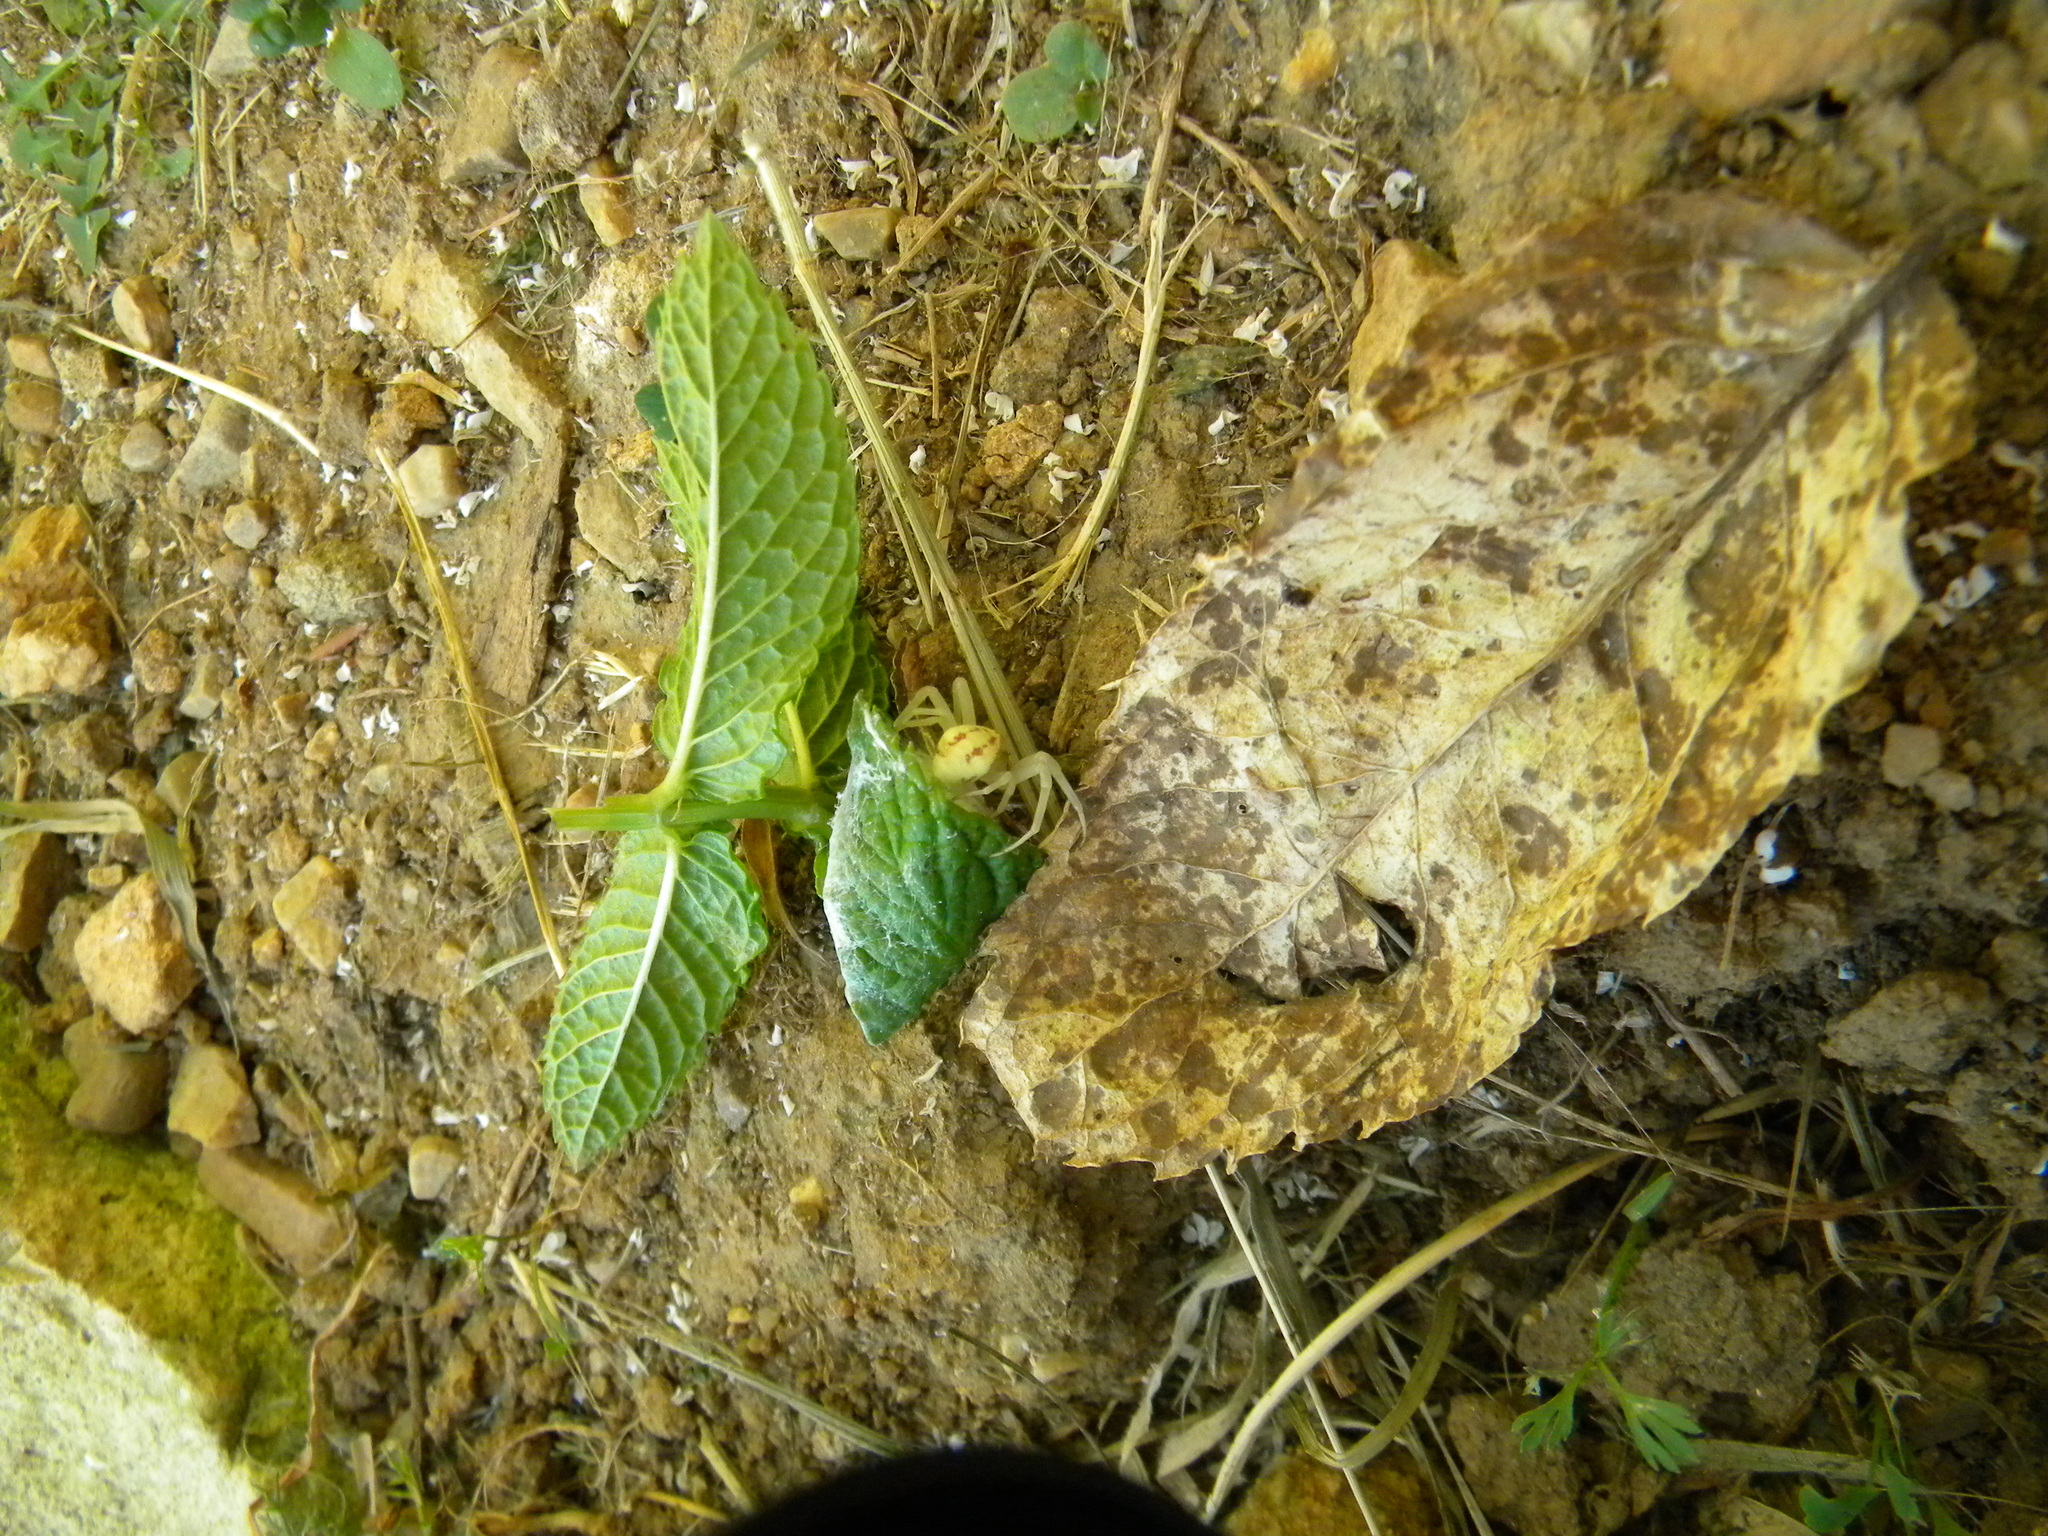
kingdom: Animalia
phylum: Arthropoda
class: Arachnida
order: Araneae
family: Thomisidae
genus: Misumena
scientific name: Misumena vatia
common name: Goldenrod crab spider
